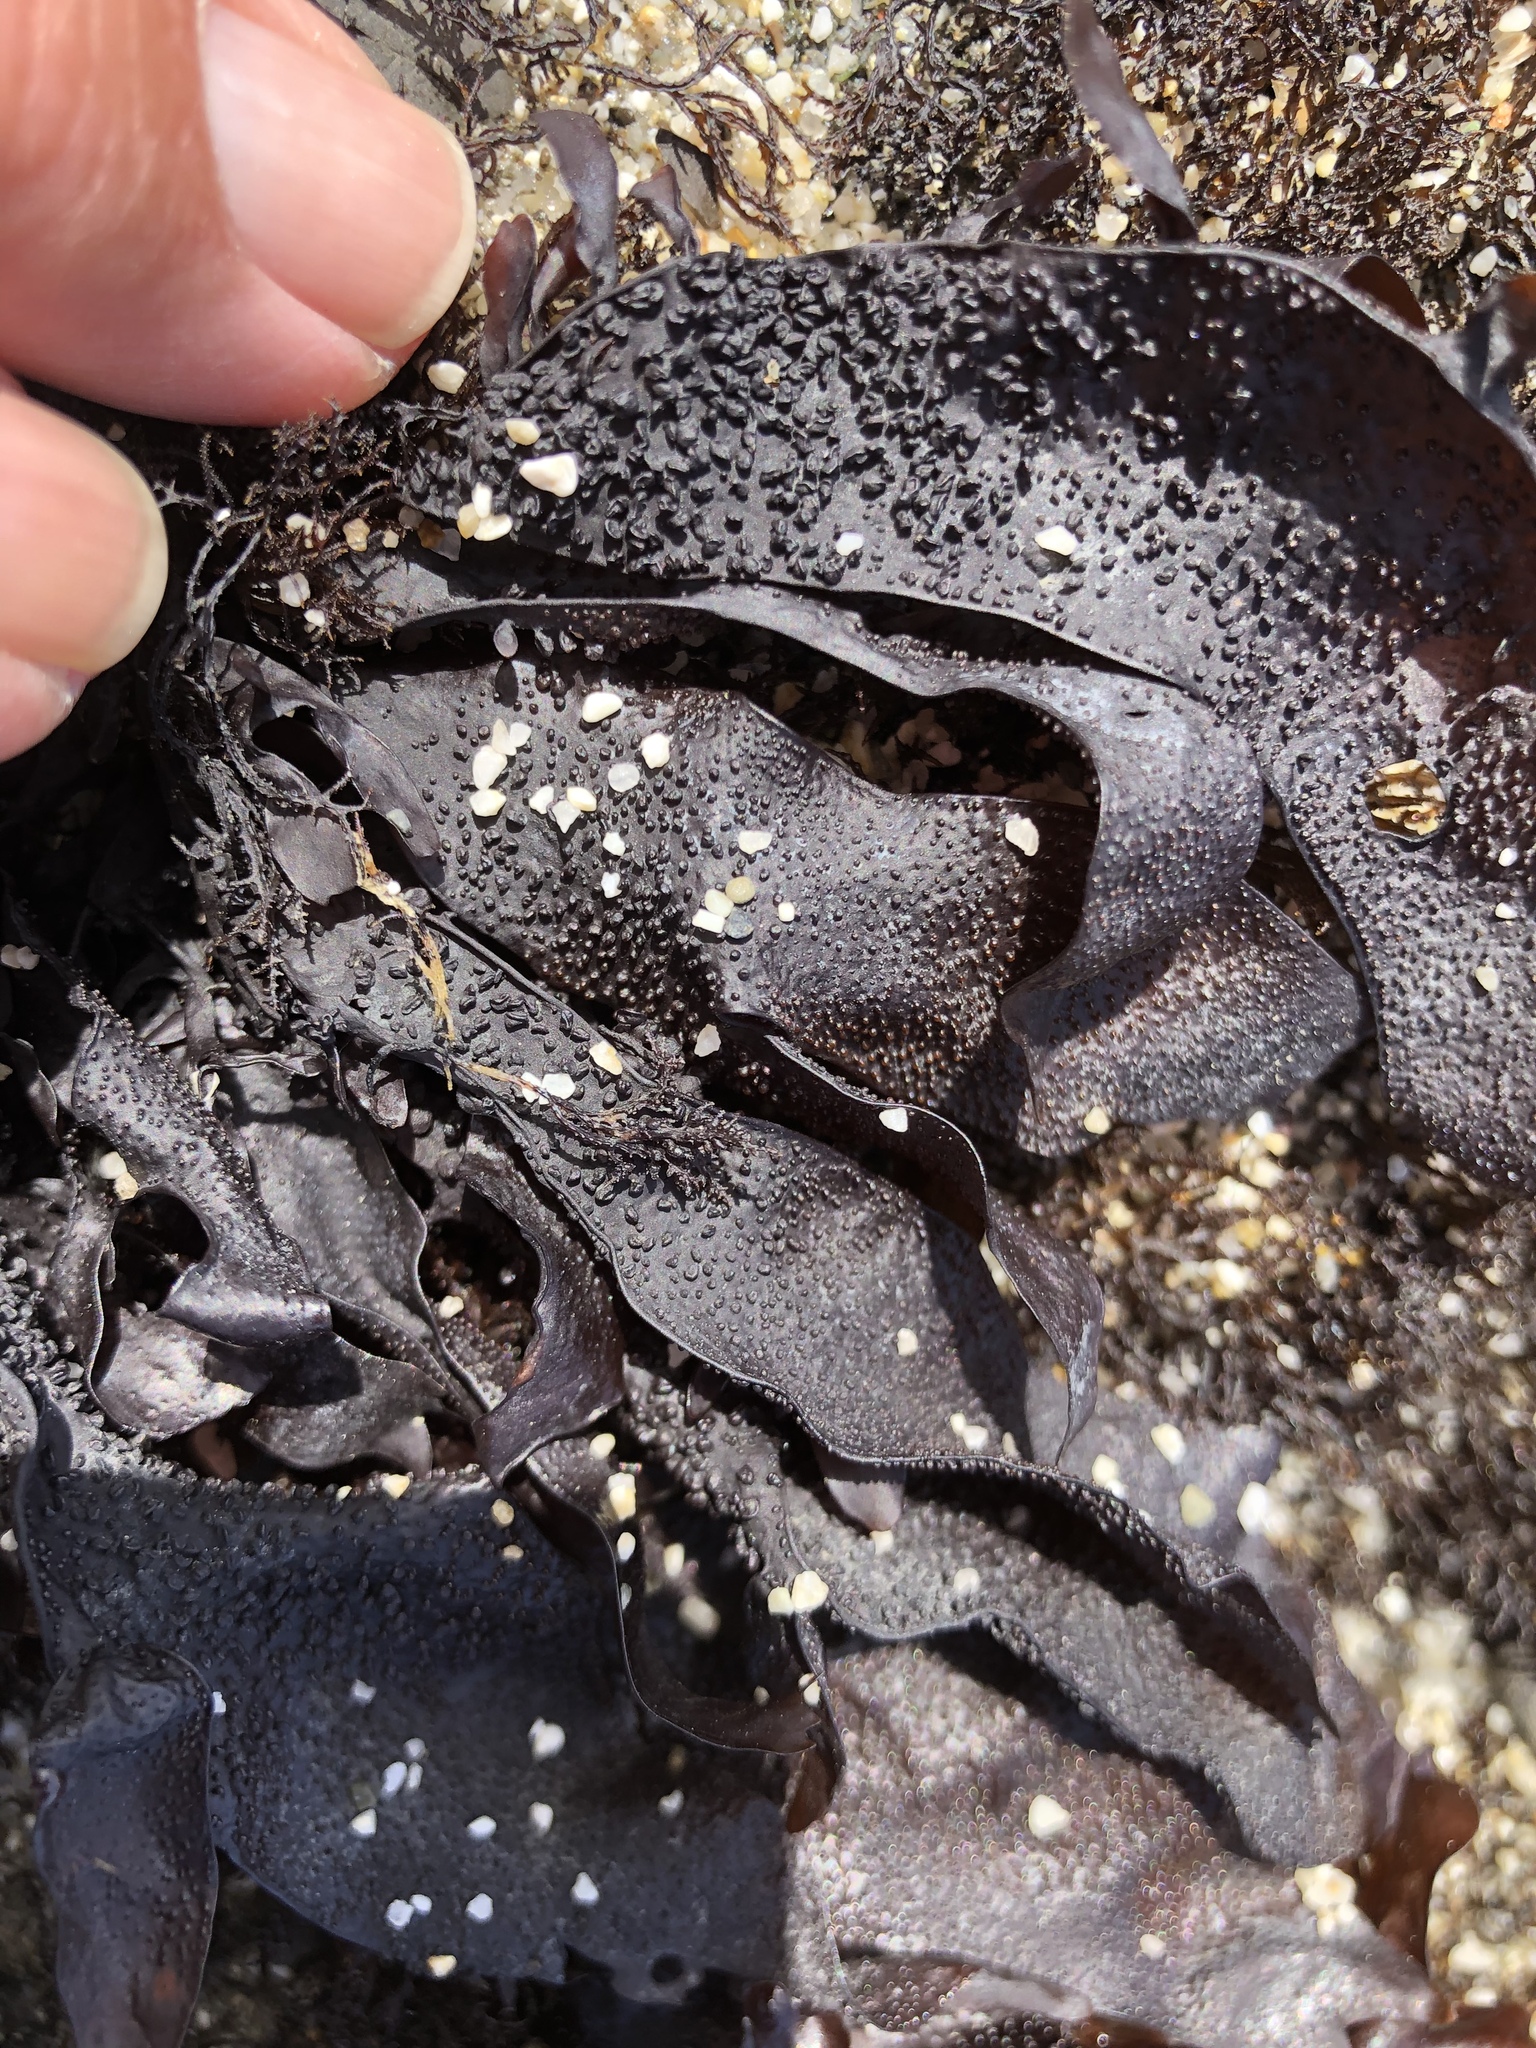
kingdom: Plantae
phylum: Rhodophyta
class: Florideophyceae
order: Gigartinales
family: Phyllophoraceae
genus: Mastocarpus
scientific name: Mastocarpus papillatus
